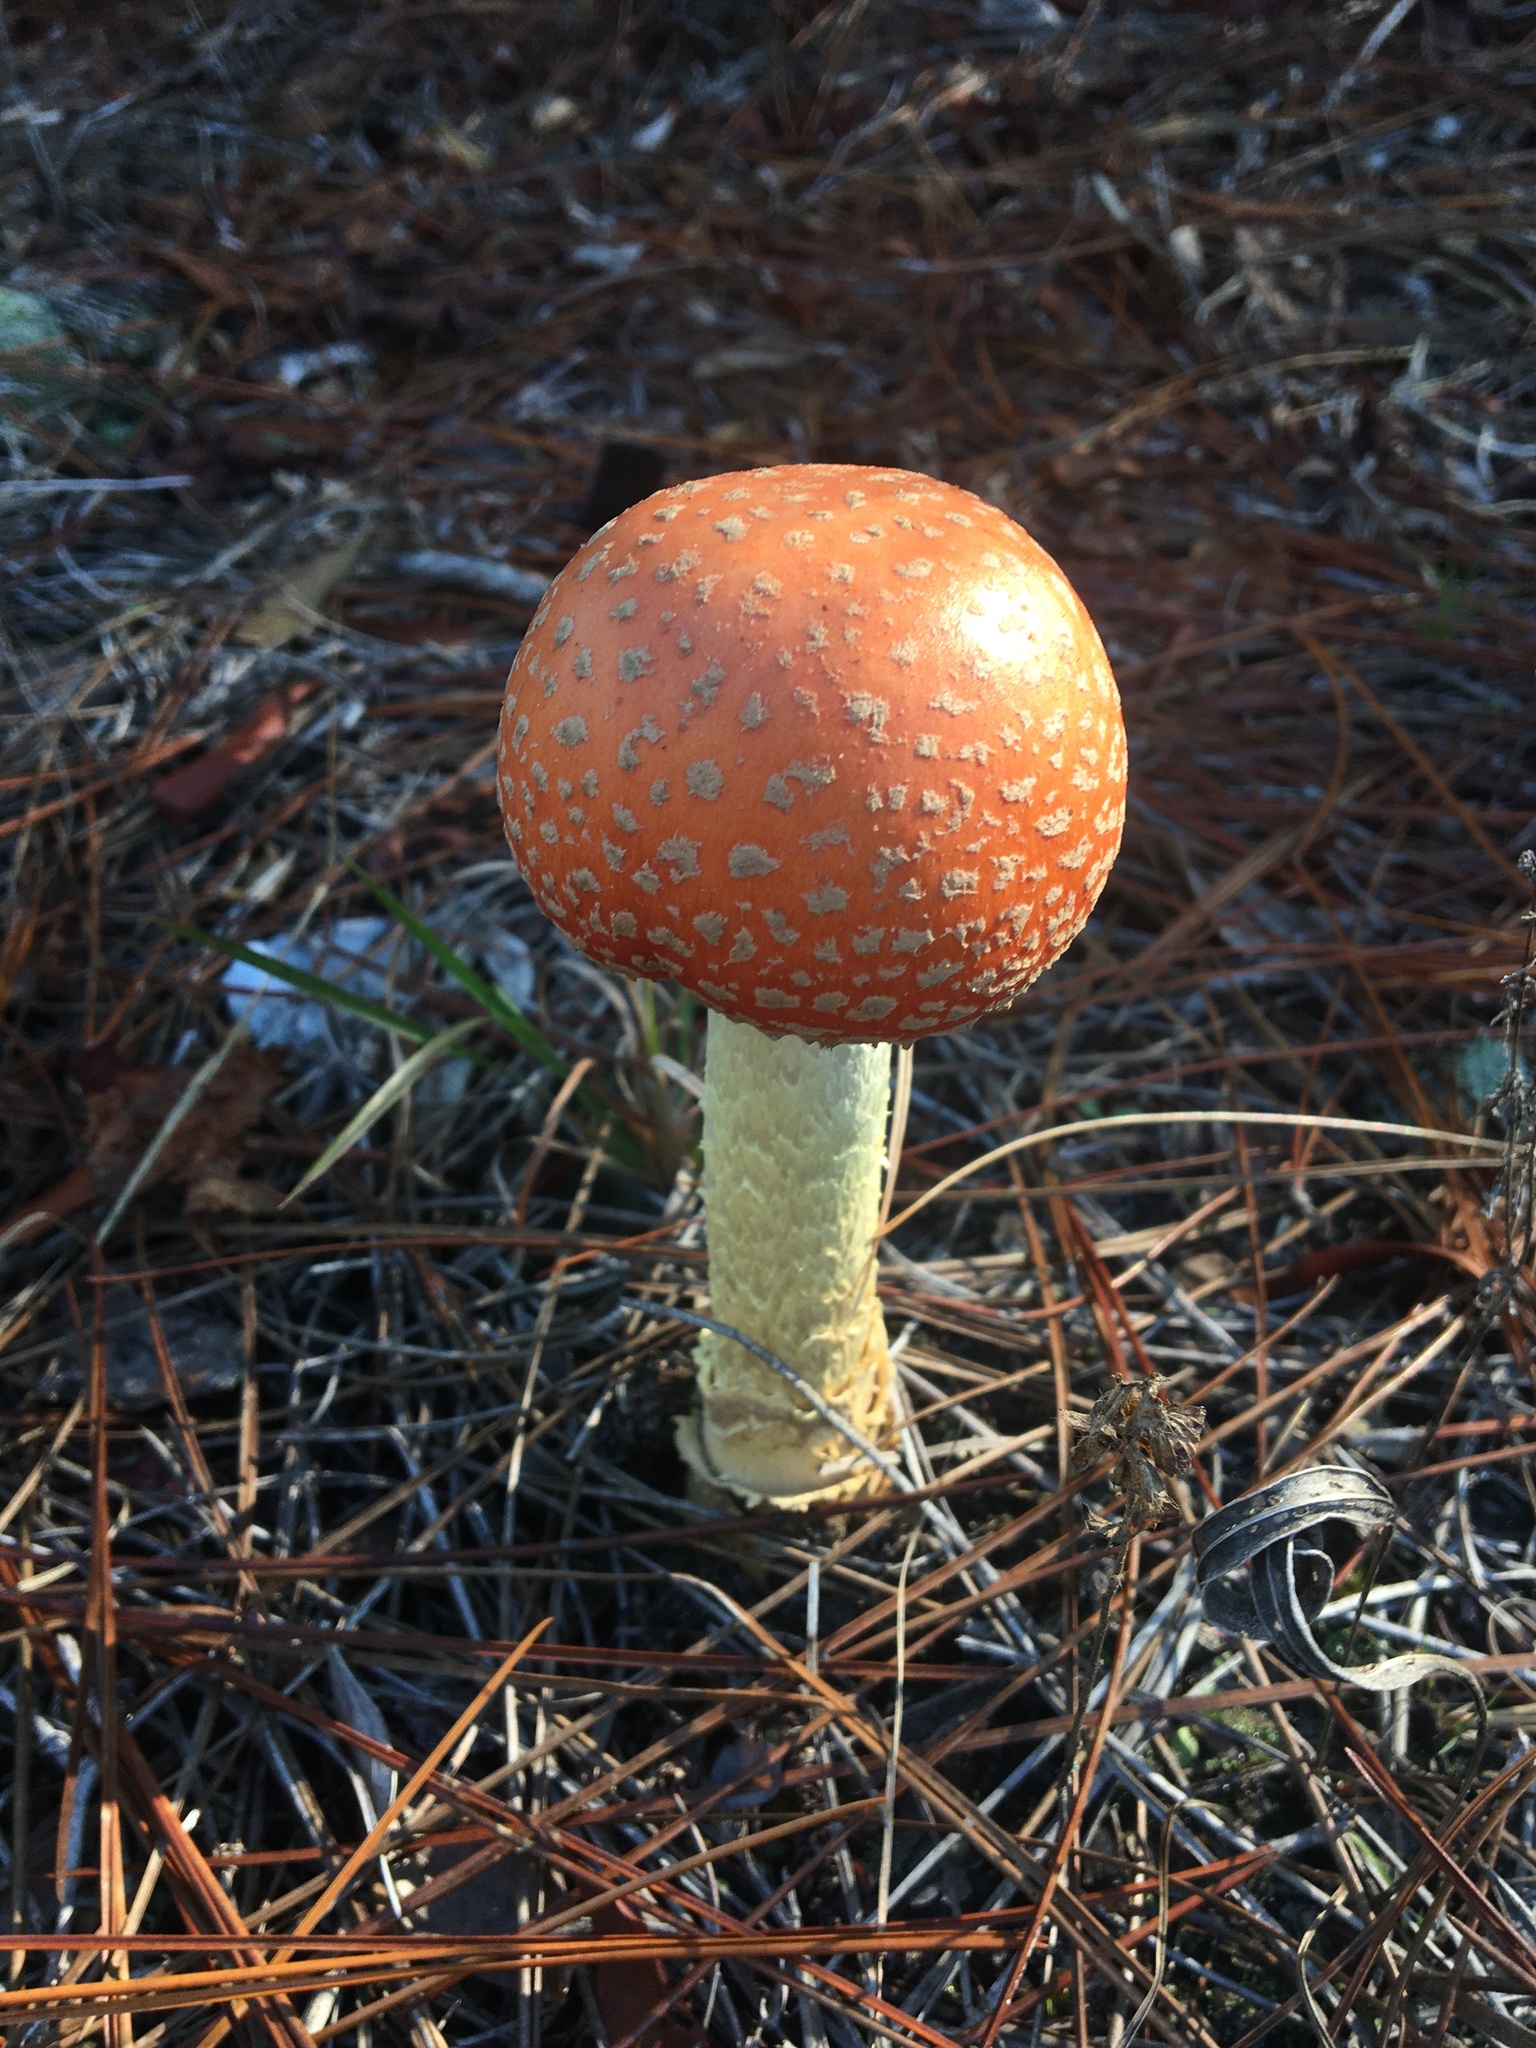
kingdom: Fungi
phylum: Basidiomycota
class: Agaricomycetes
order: Agaricales
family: Amanitaceae
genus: Amanita
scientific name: Amanita persicina
